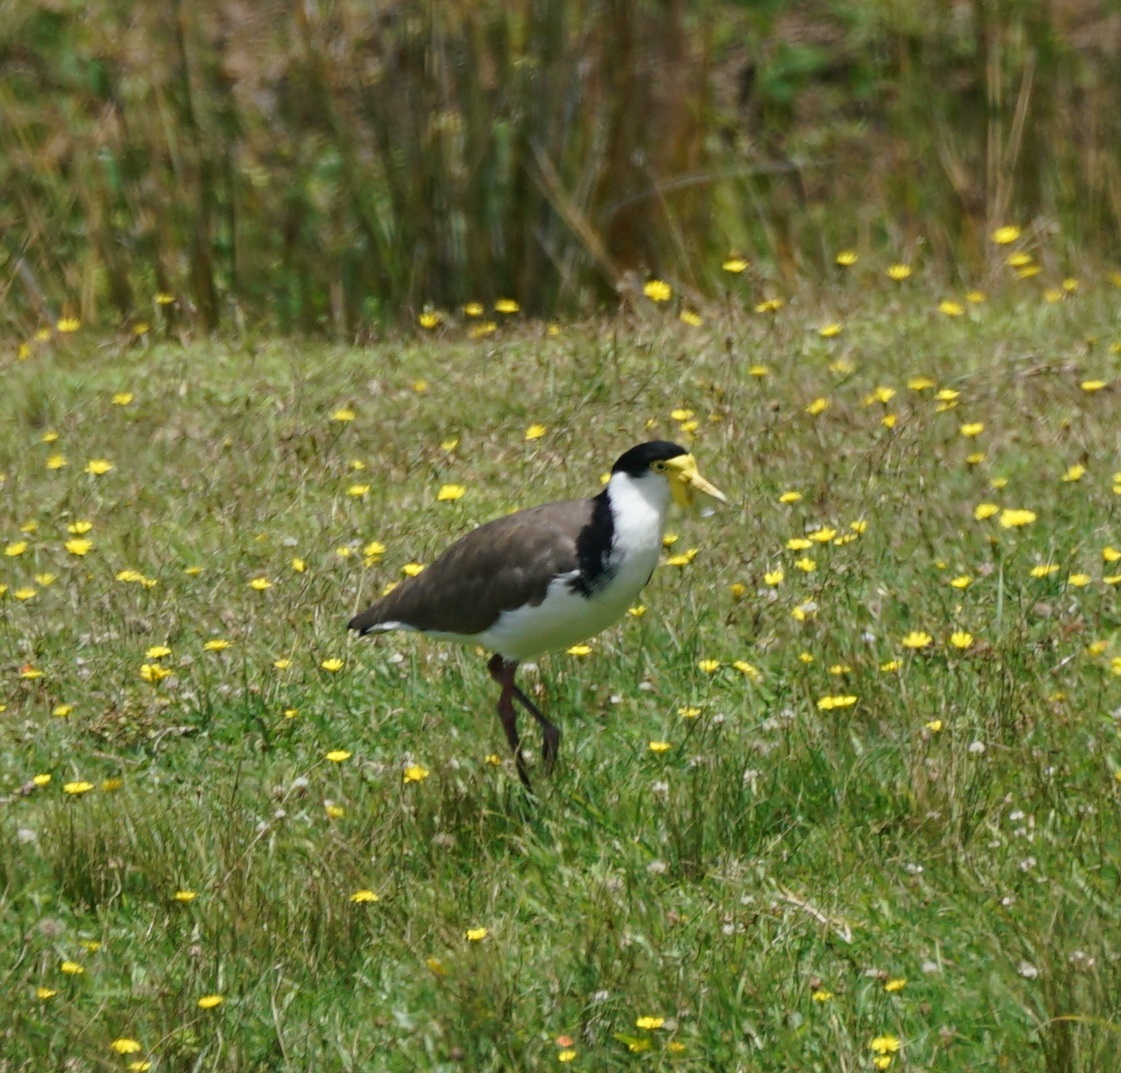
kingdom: Animalia
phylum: Chordata
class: Aves
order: Charadriiformes
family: Charadriidae
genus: Vanellus
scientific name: Vanellus miles
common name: Masked lapwing
